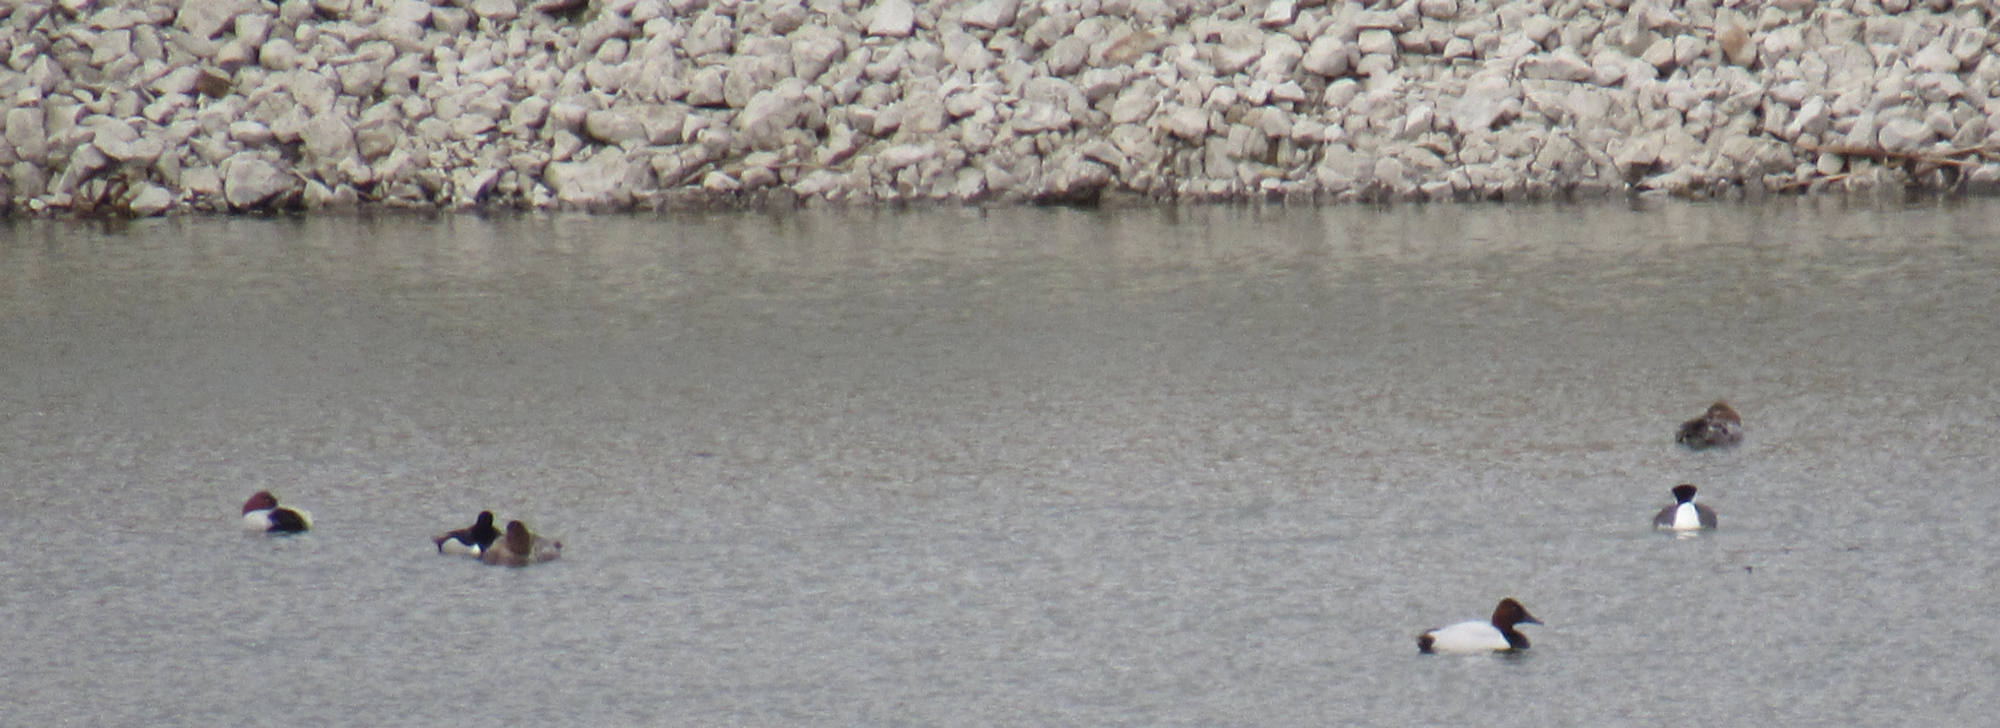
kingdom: Animalia
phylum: Chordata
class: Aves
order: Anseriformes
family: Anatidae
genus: Aythya
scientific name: Aythya valisineria
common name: Canvasback
